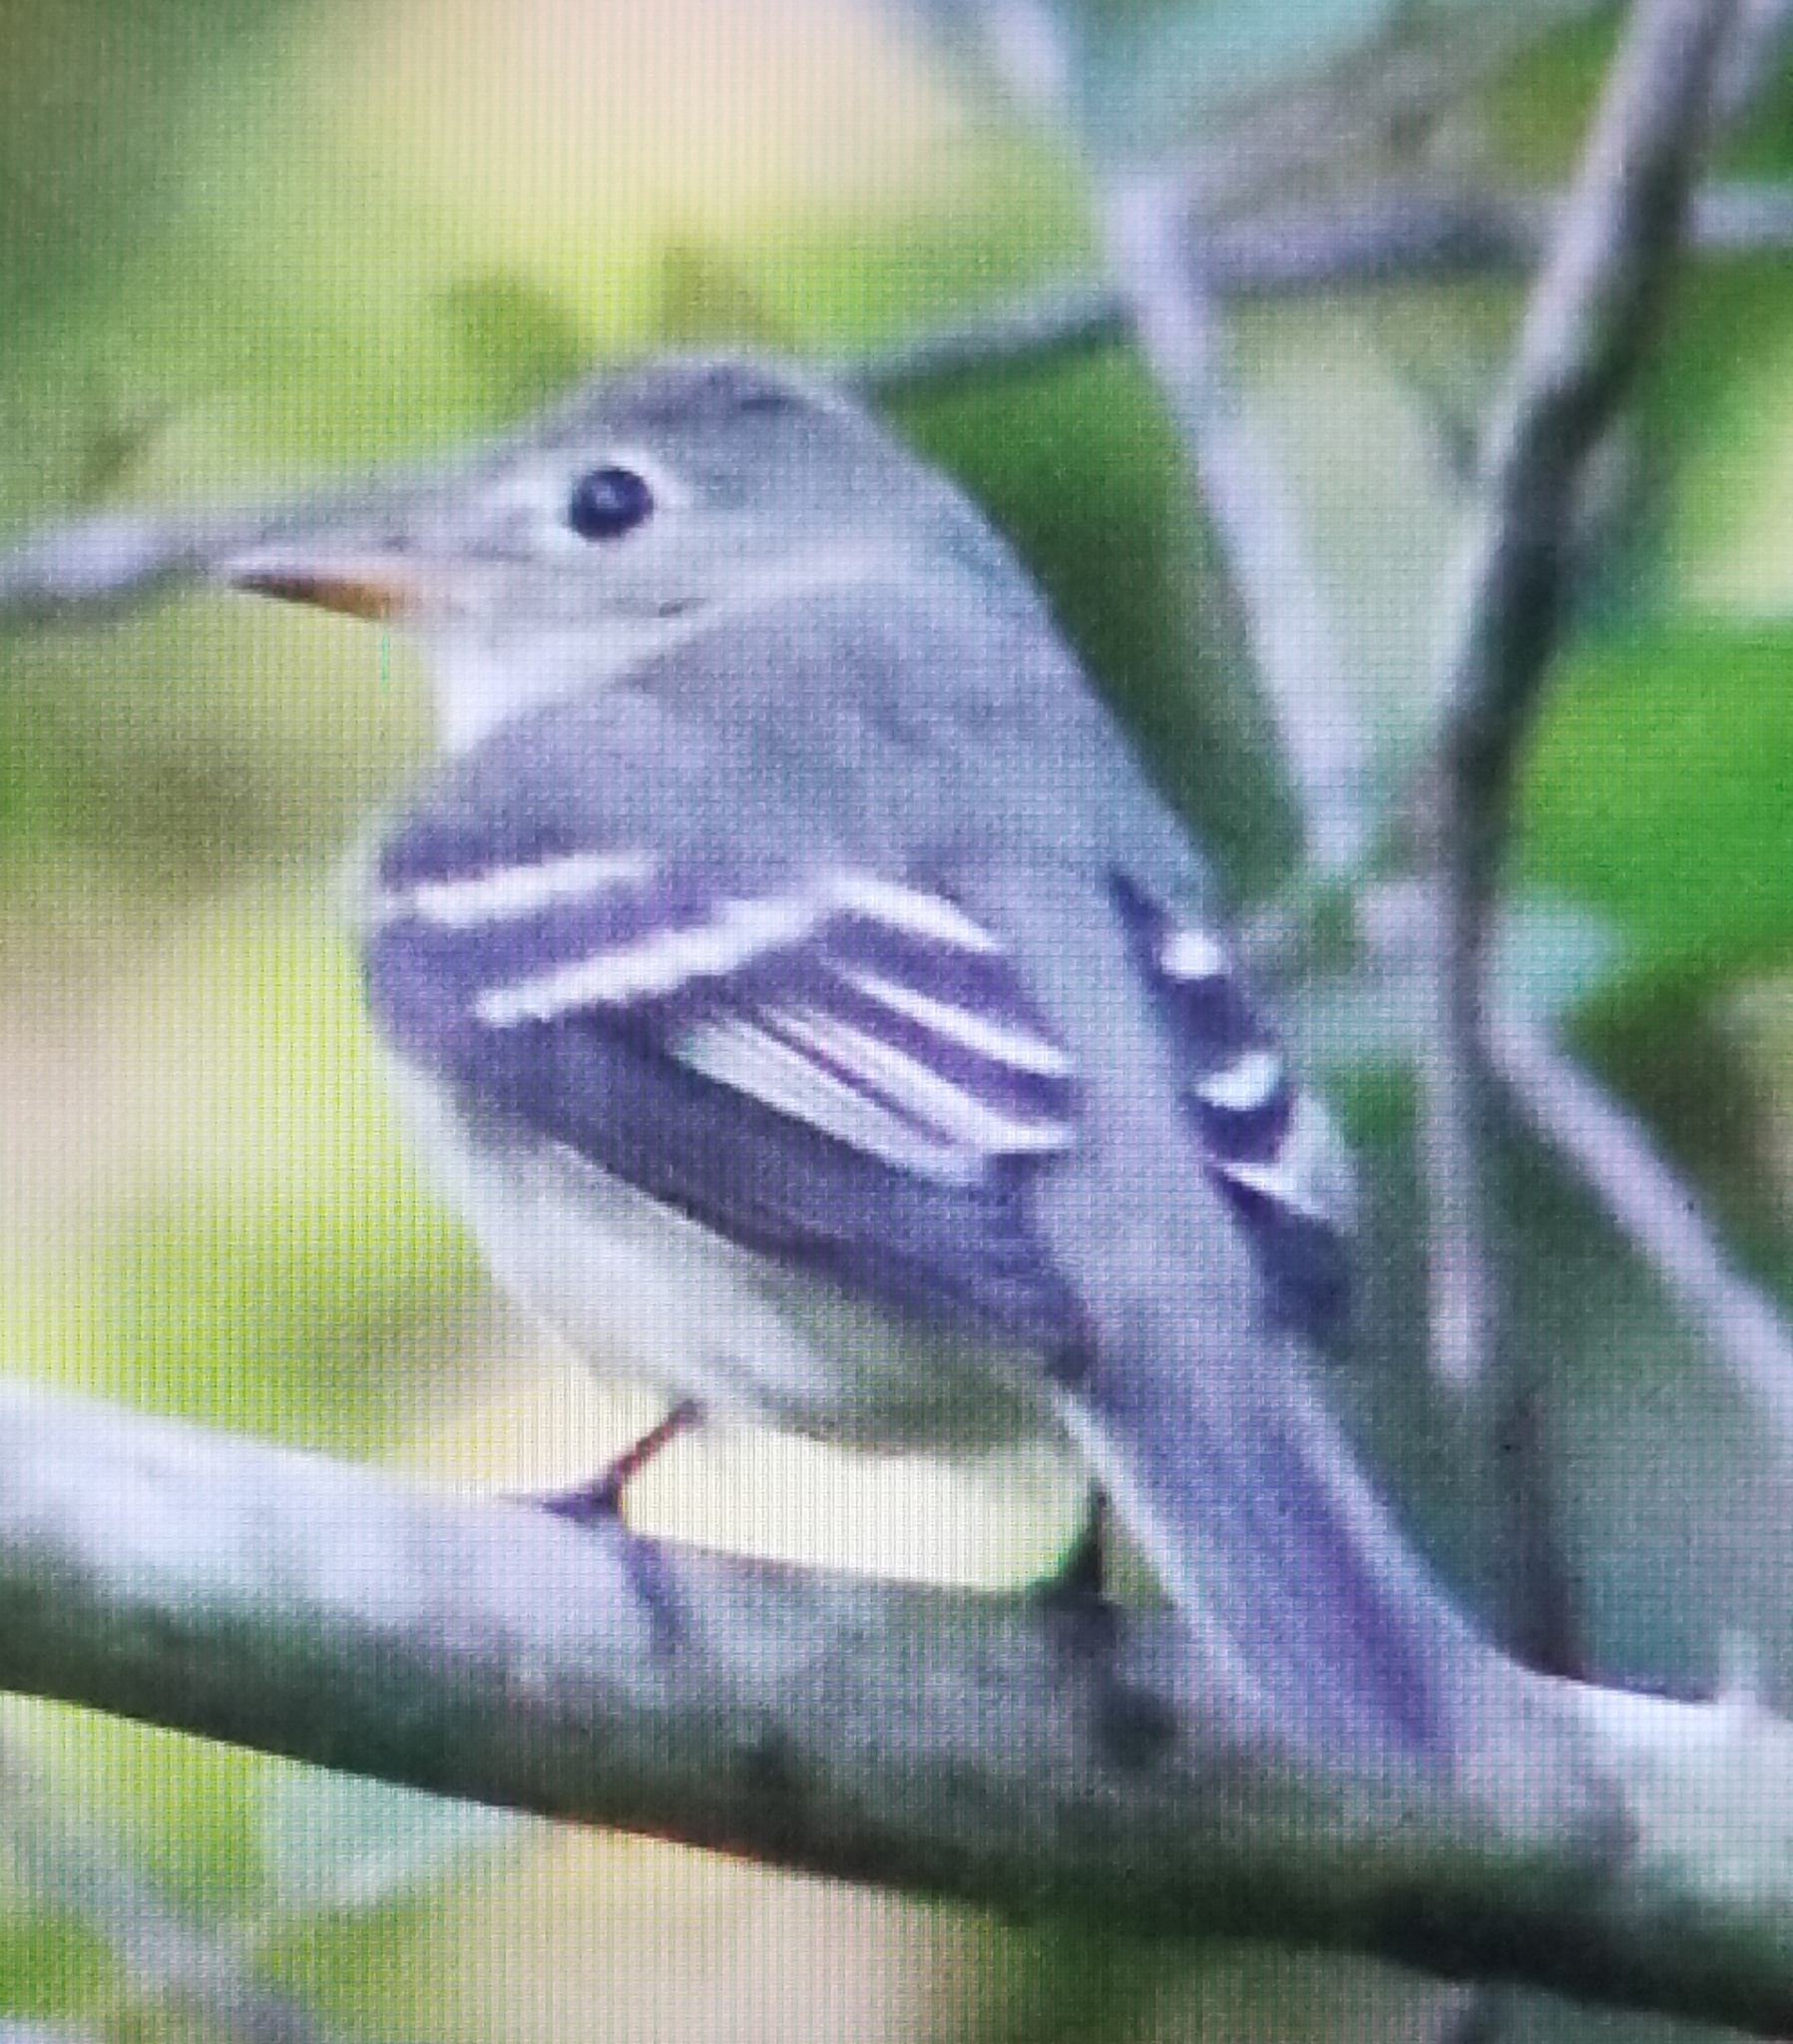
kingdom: Animalia
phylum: Chordata
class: Aves
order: Passeriformes
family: Tyrannidae
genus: Empidonax
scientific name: Empidonax virescens
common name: Acadian flycatcher
